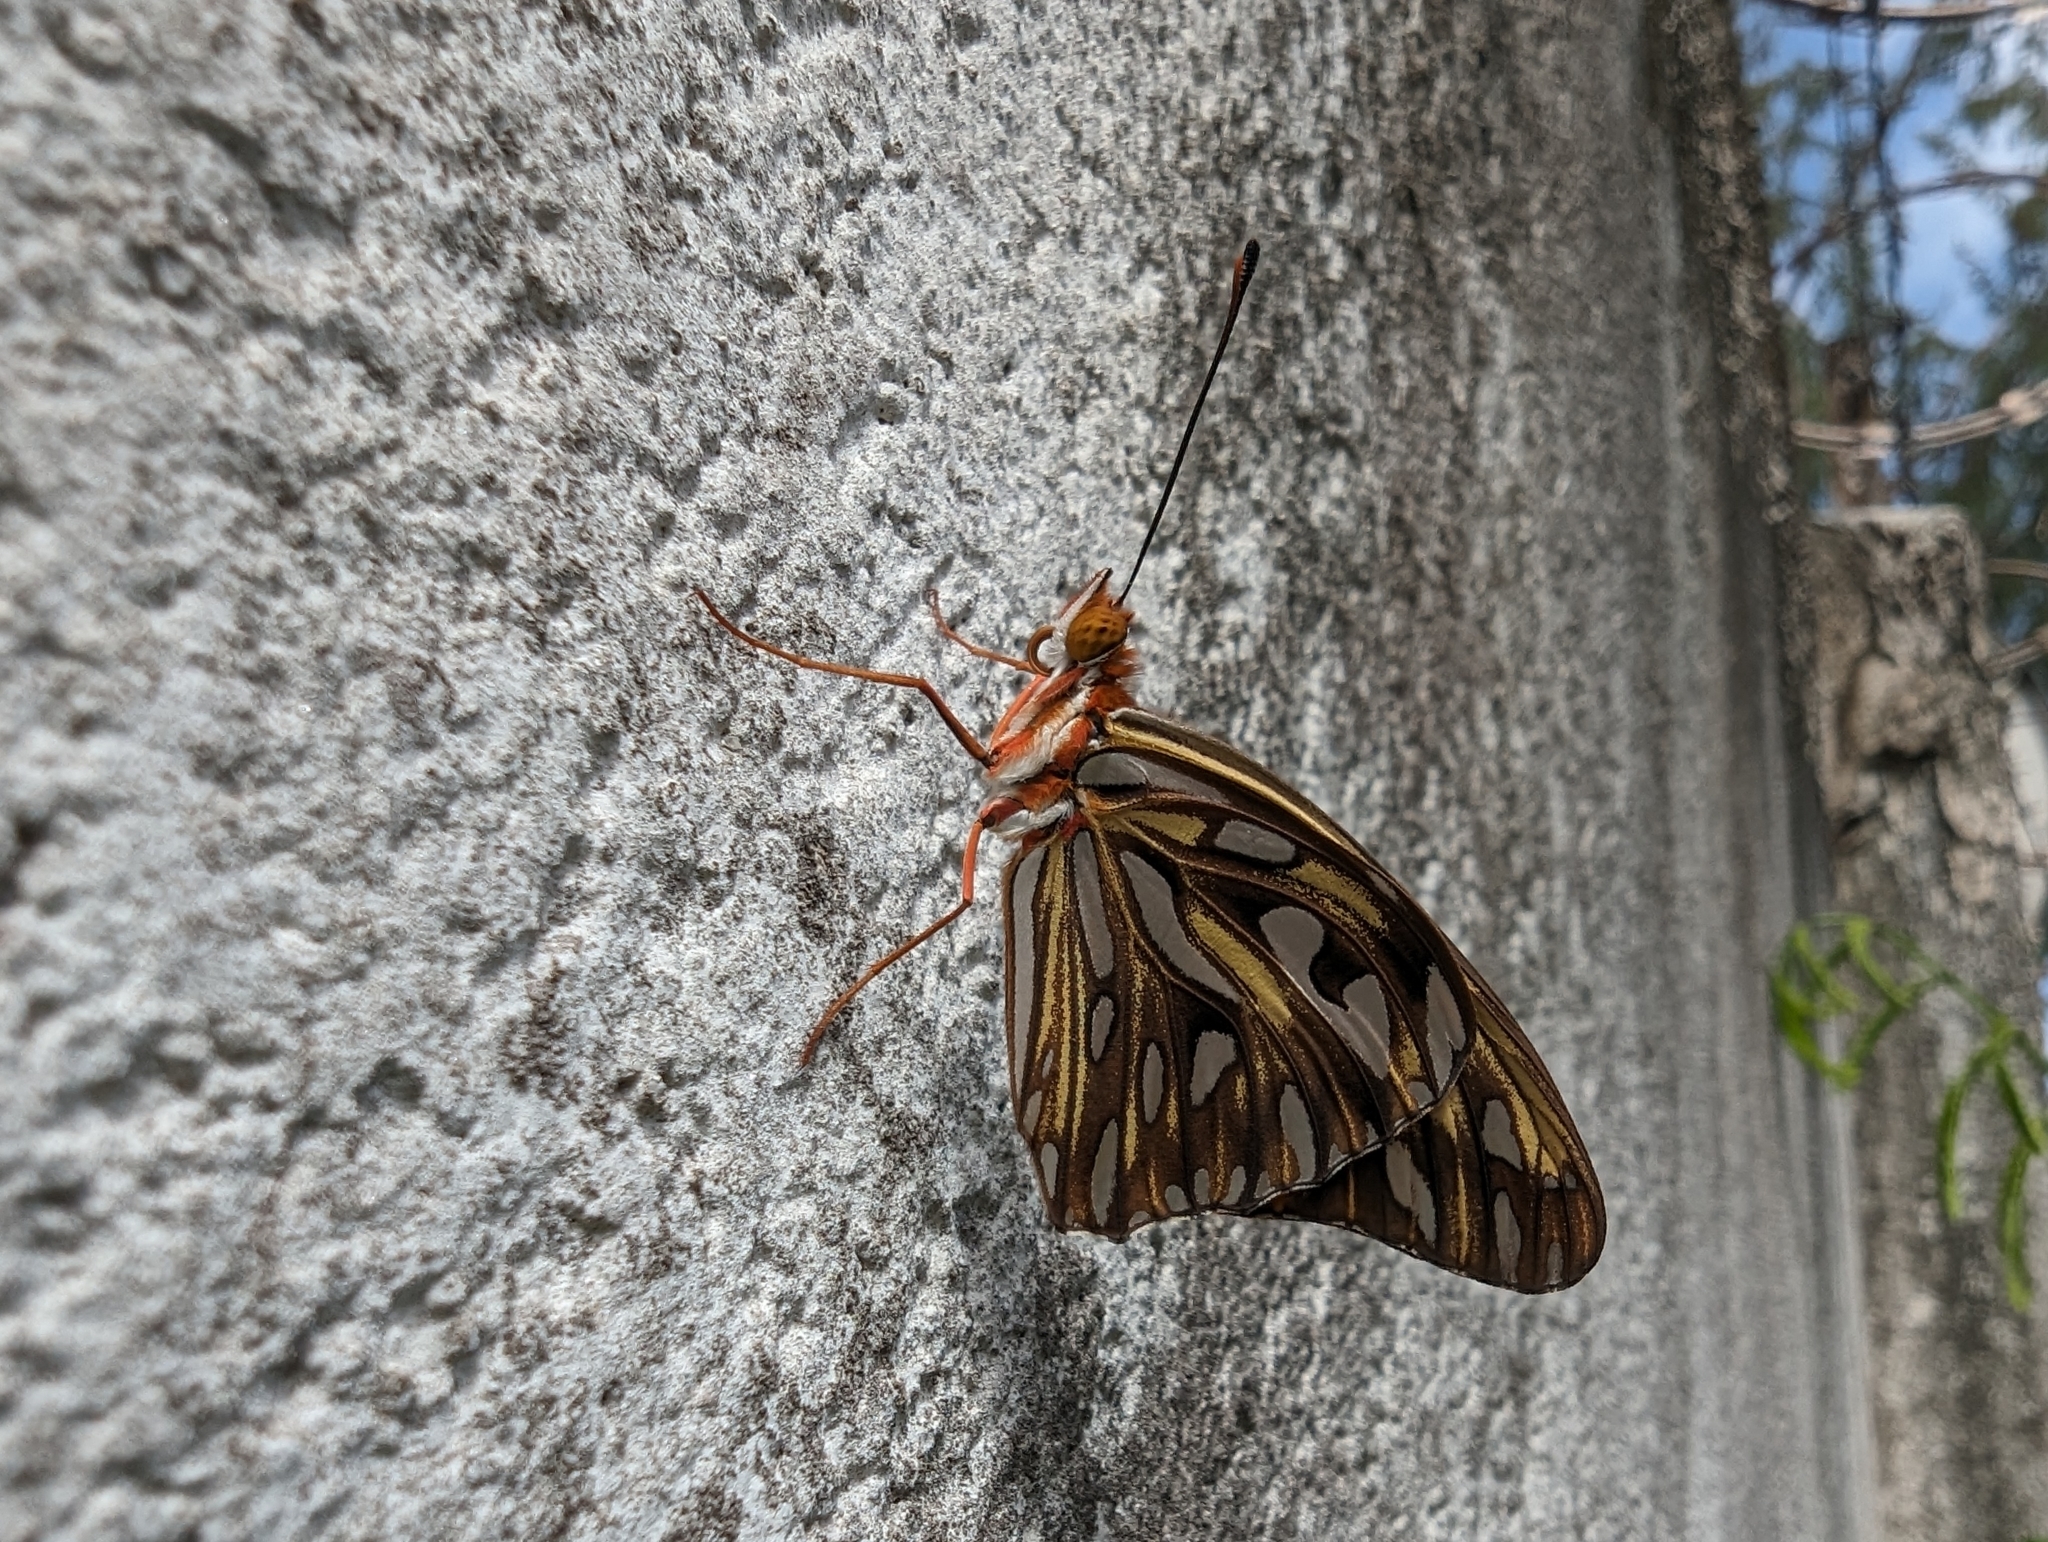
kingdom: Animalia
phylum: Arthropoda
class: Insecta
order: Lepidoptera
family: Nymphalidae
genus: Dione
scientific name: Dione vanillae
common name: Gulf fritillary
